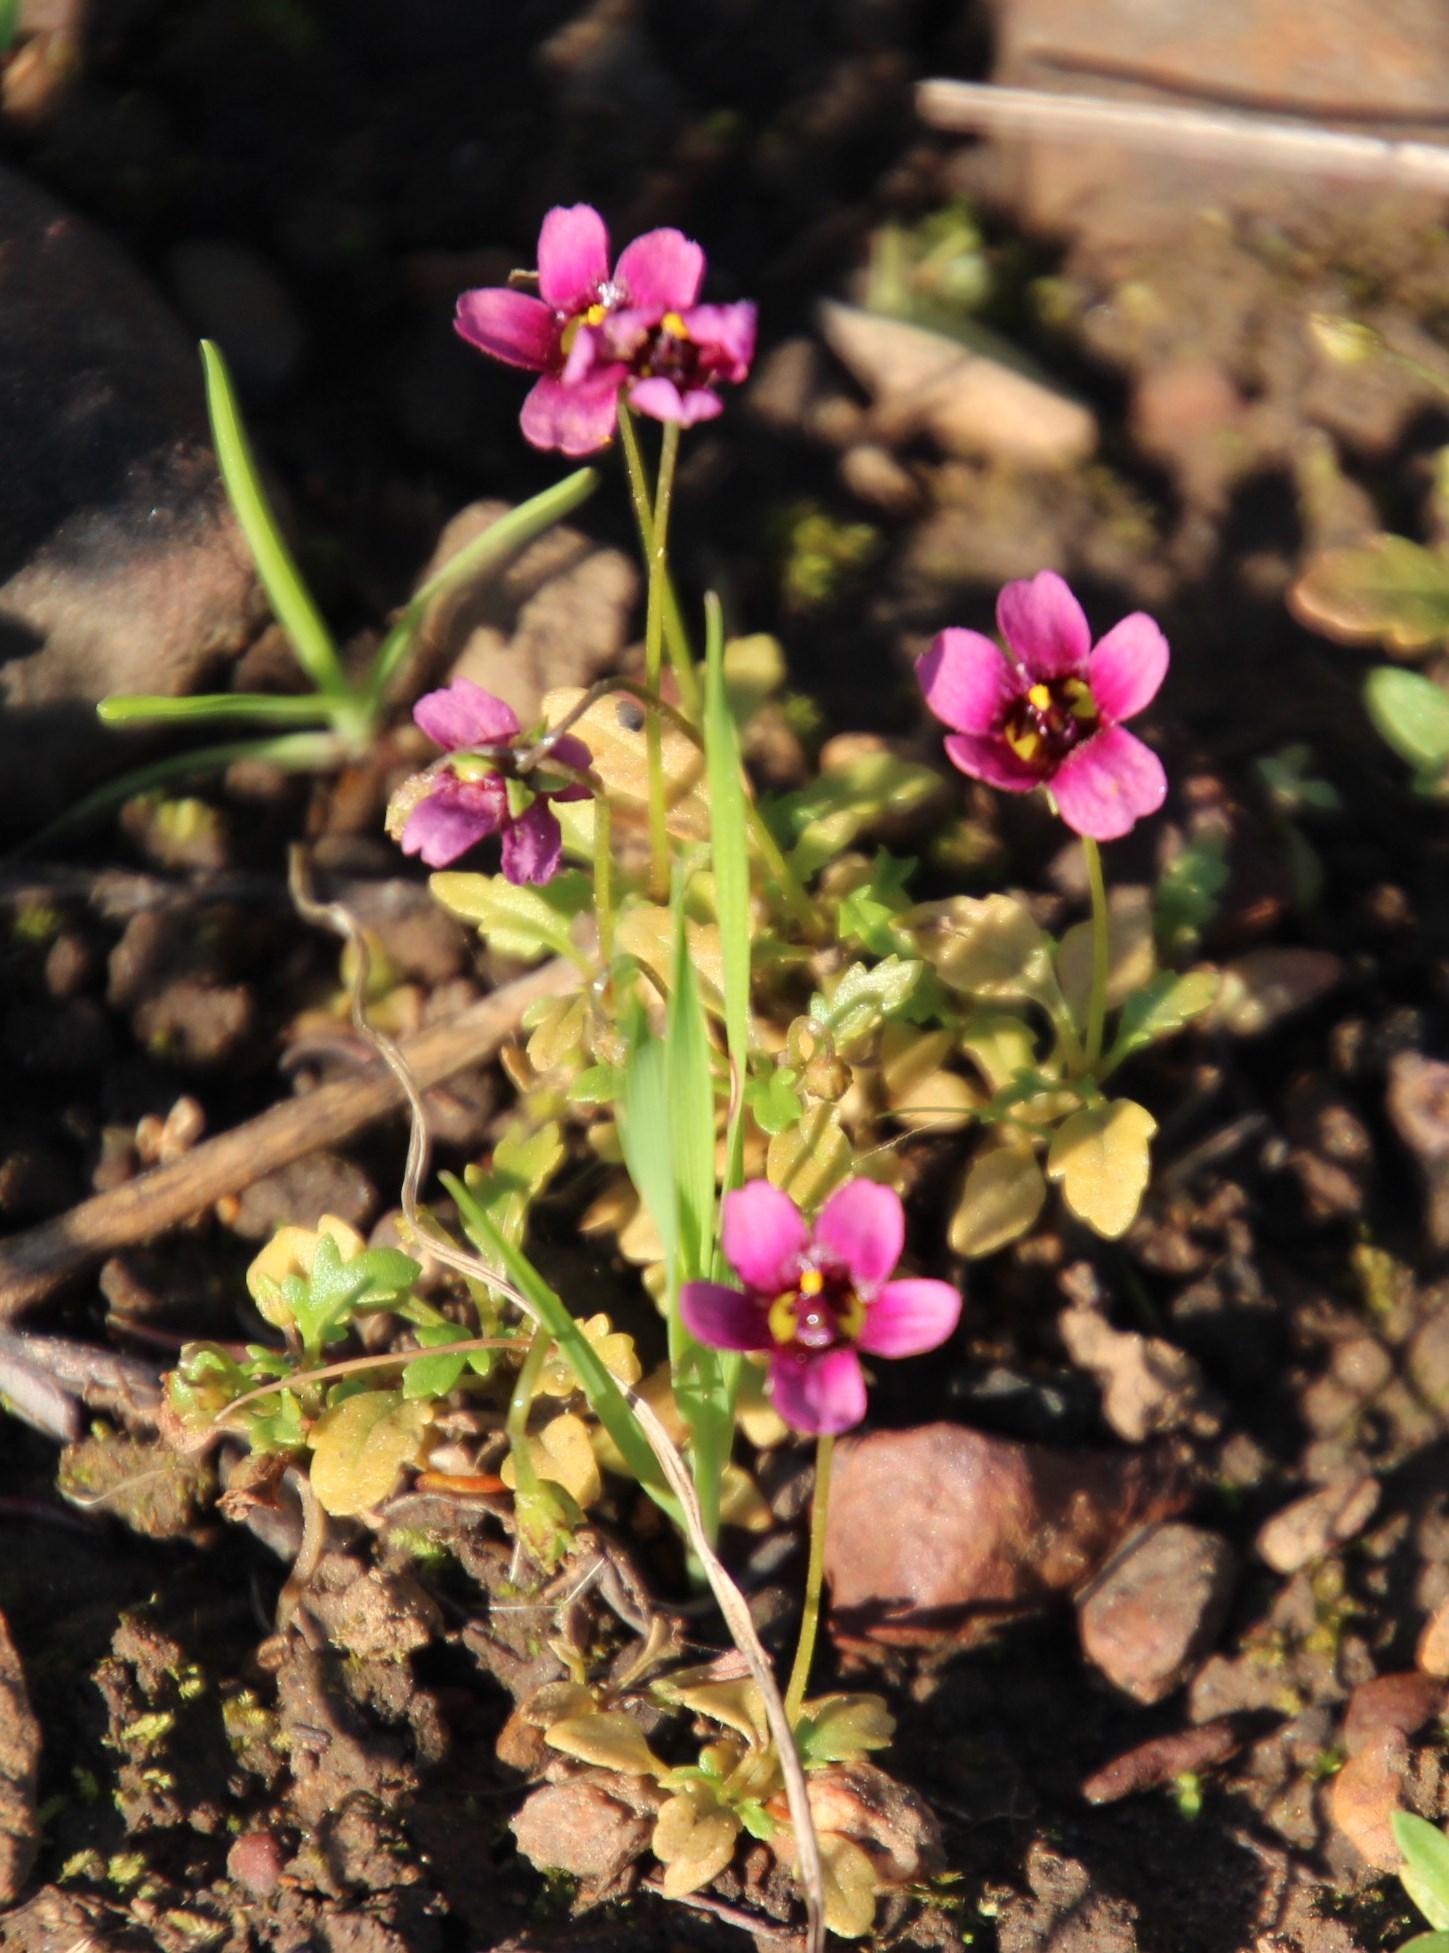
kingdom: Plantae
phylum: Tracheophyta
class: Magnoliopsida
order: Lamiales
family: Scrophulariaceae
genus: Diascia
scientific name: Diascia capensis
